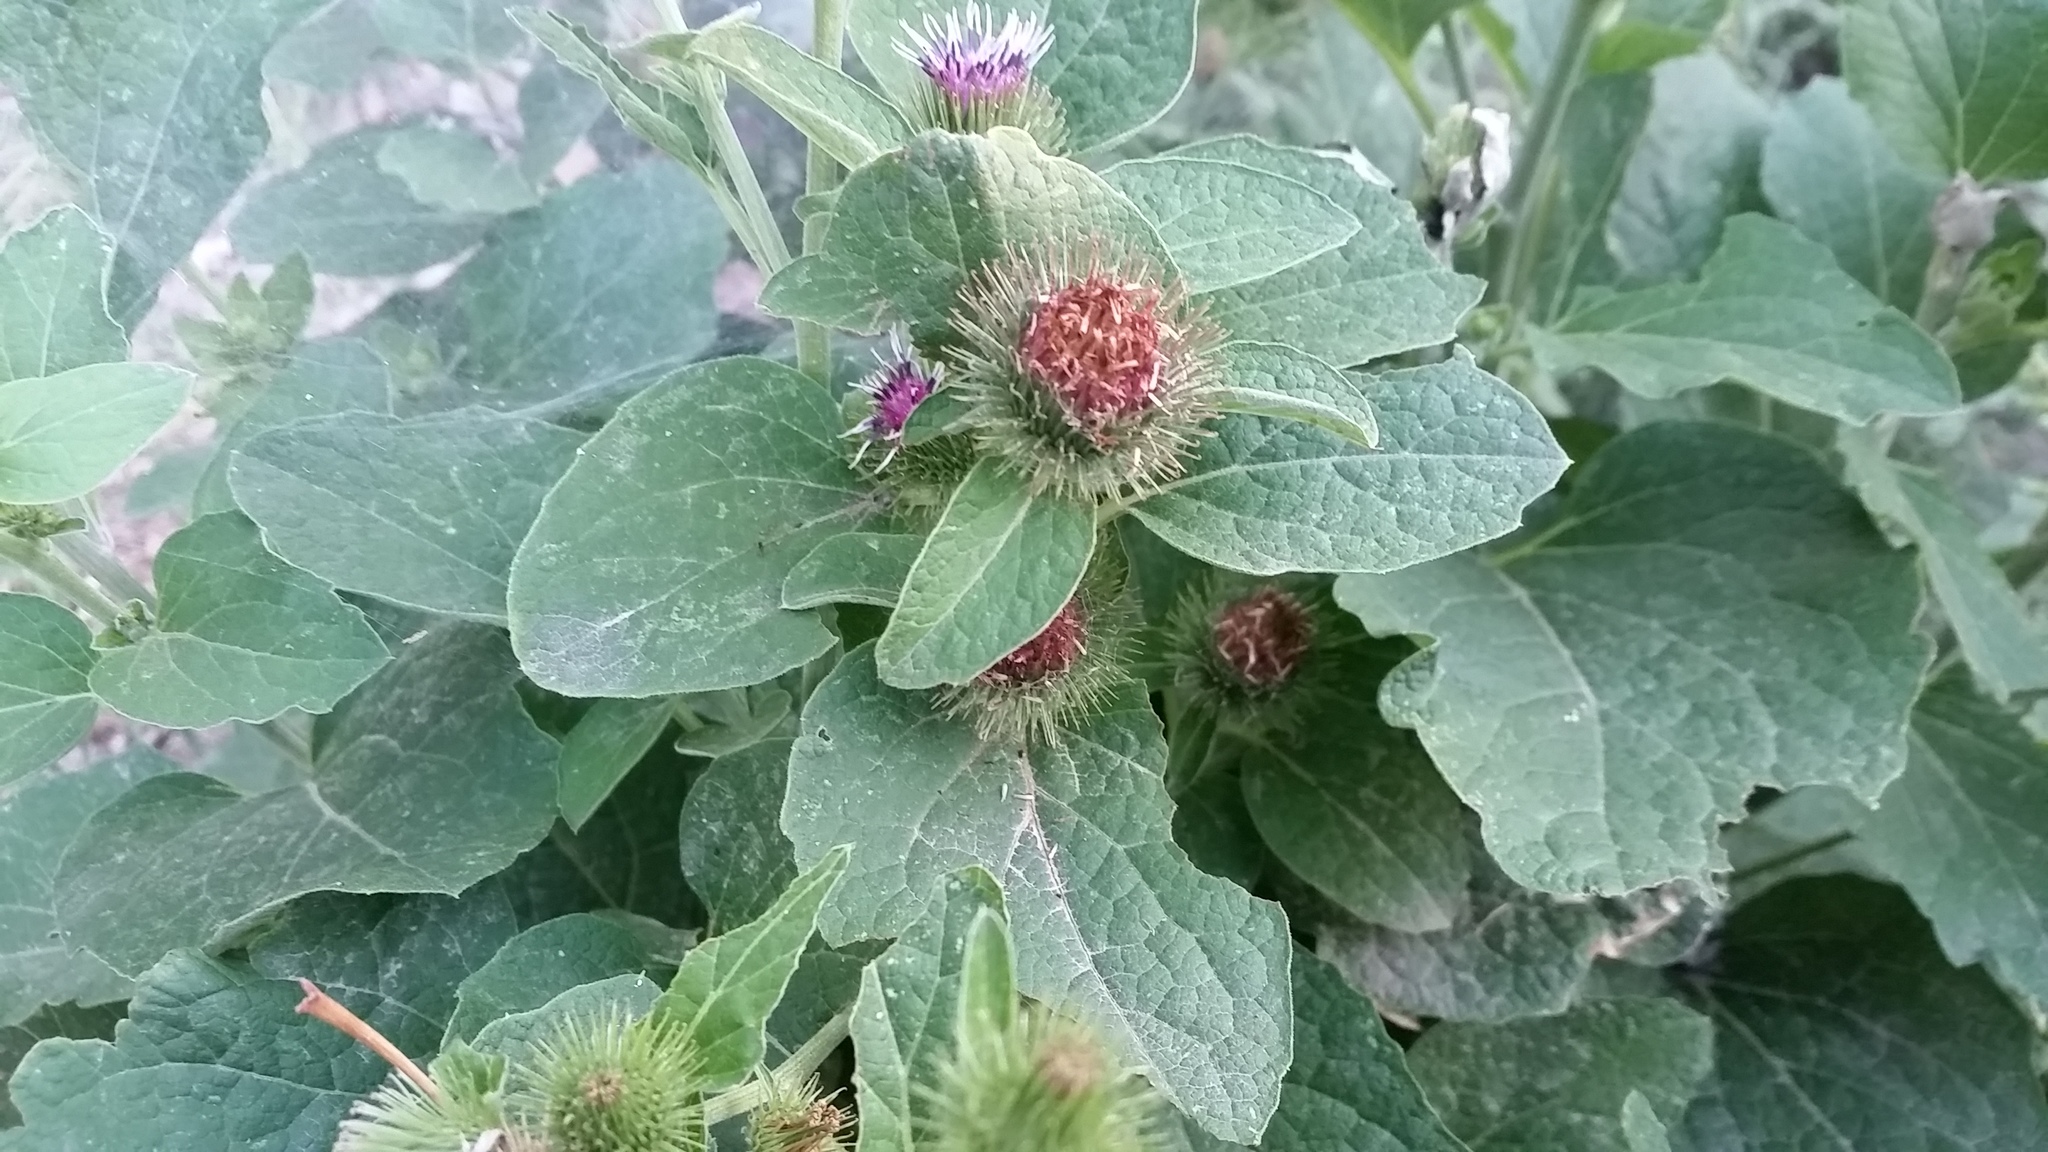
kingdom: Plantae
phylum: Tracheophyta
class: Magnoliopsida
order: Asterales
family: Asteraceae
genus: Arctium
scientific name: Arctium minus
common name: Lesser burdock
